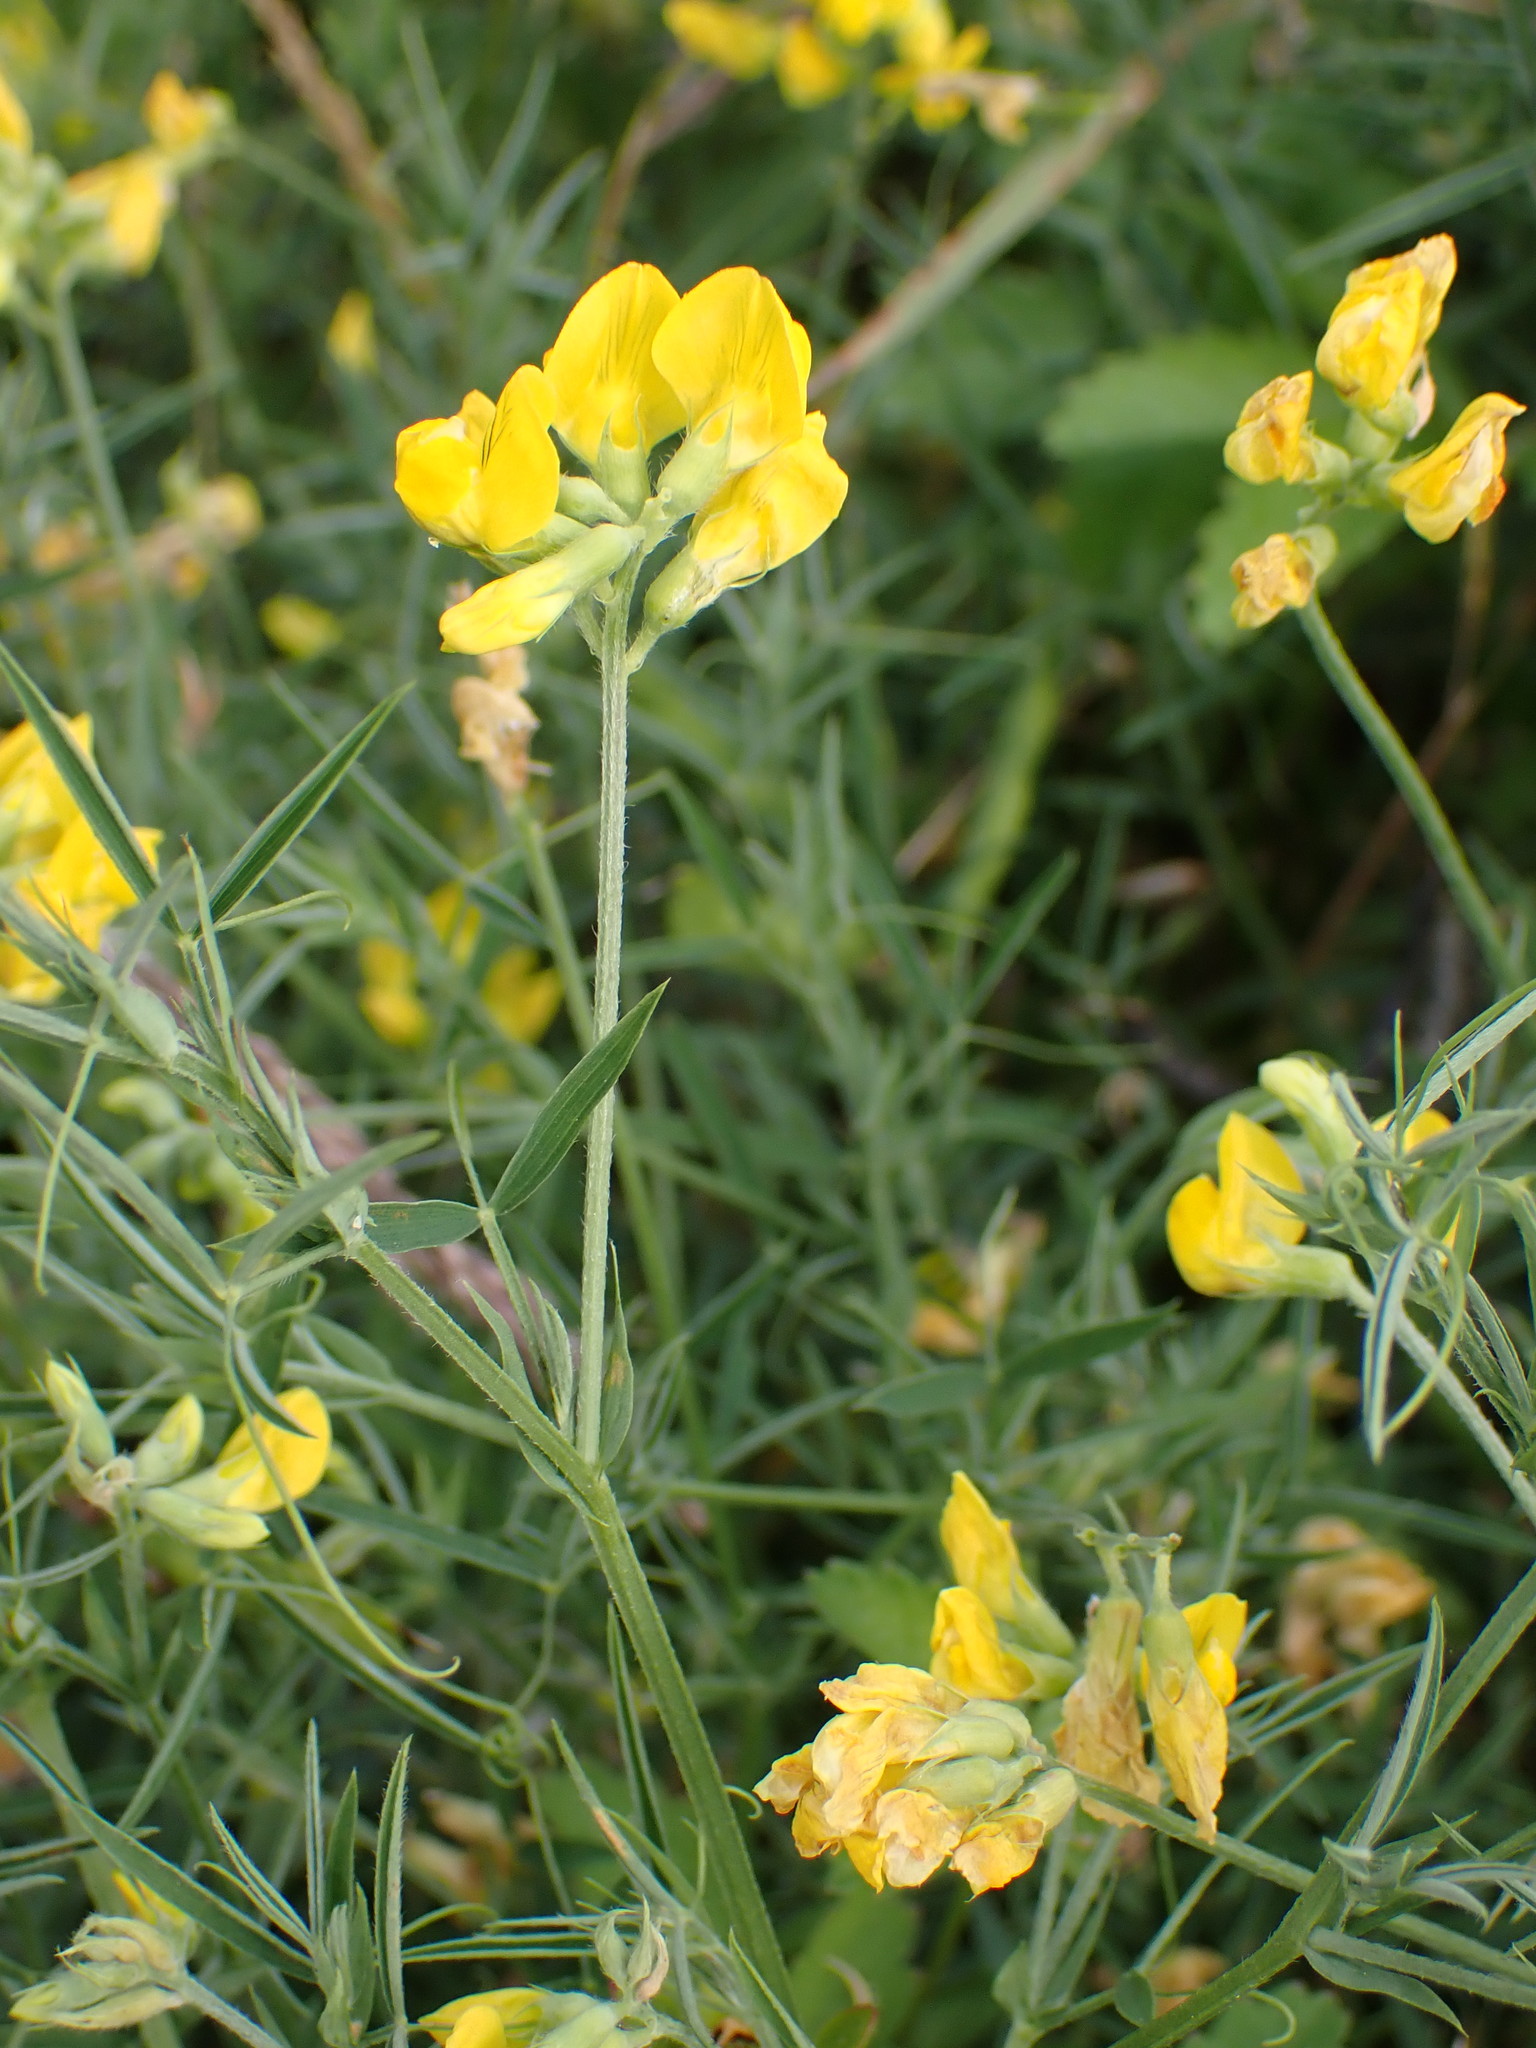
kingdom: Plantae
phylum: Tracheophyta
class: Magnoliopsida
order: Fabales
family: Fabaceae
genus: Lathyrus
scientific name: Lathyrus pratensis
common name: Meadow vetchling
